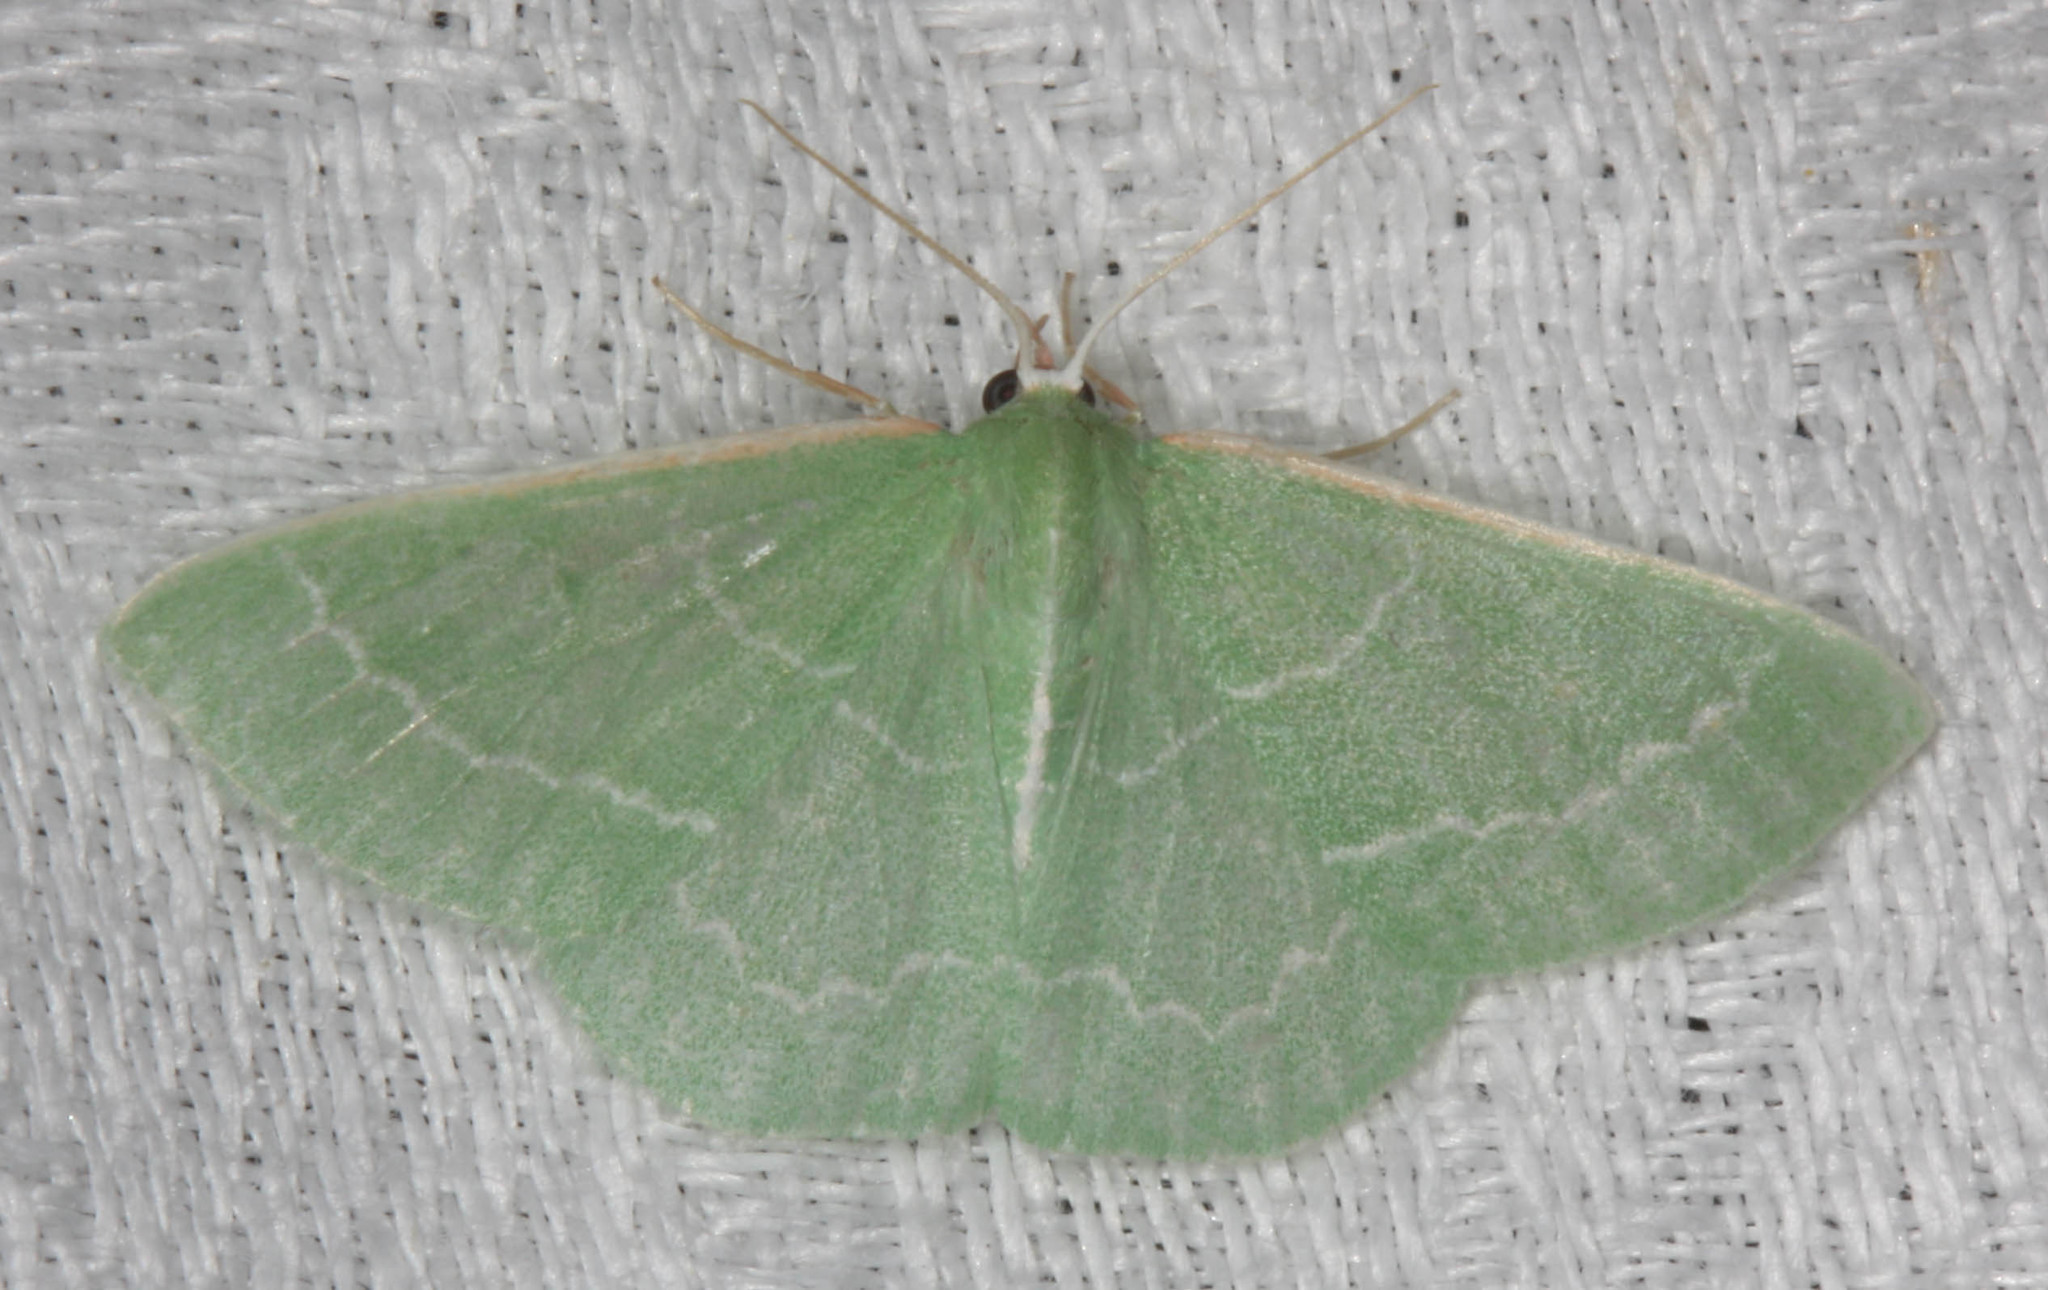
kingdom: Animalia
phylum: Arthropoda
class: Insecta
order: Lepidoptera
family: Geometridae
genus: Synchlora
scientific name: Synchlora aerata
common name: Wavy-lined emerald
